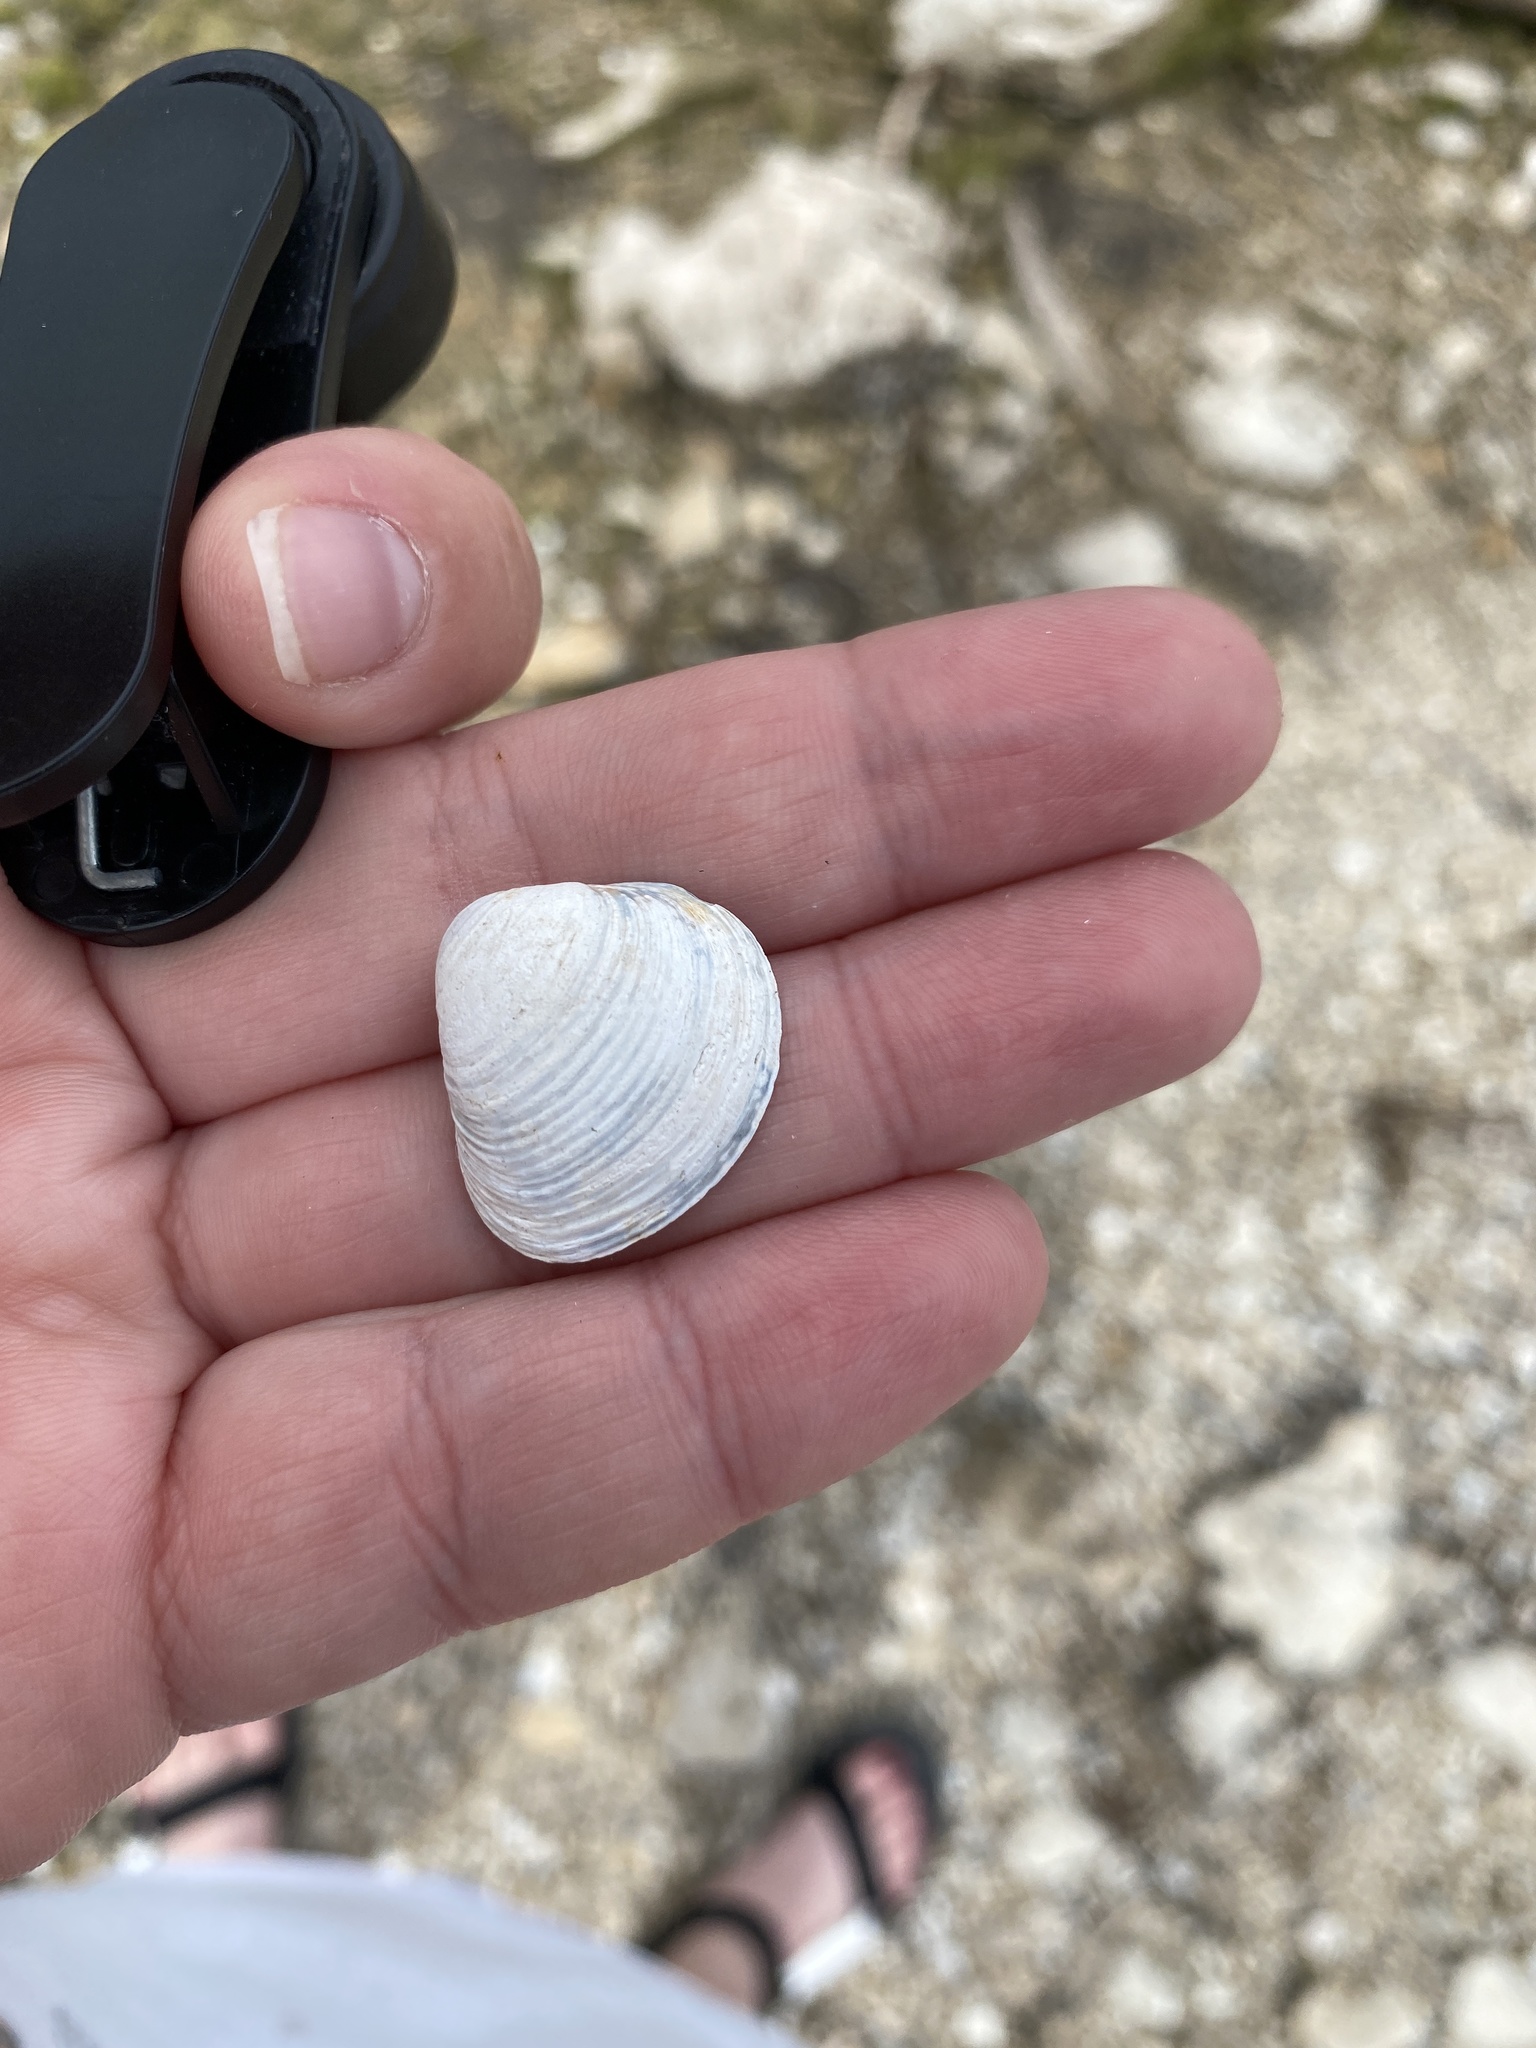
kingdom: Animalia
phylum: Mollusca
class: Bivalvia
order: Venerida
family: Cyrenidae
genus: Corbicula
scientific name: Corbicula fluminea
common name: Asian clam
